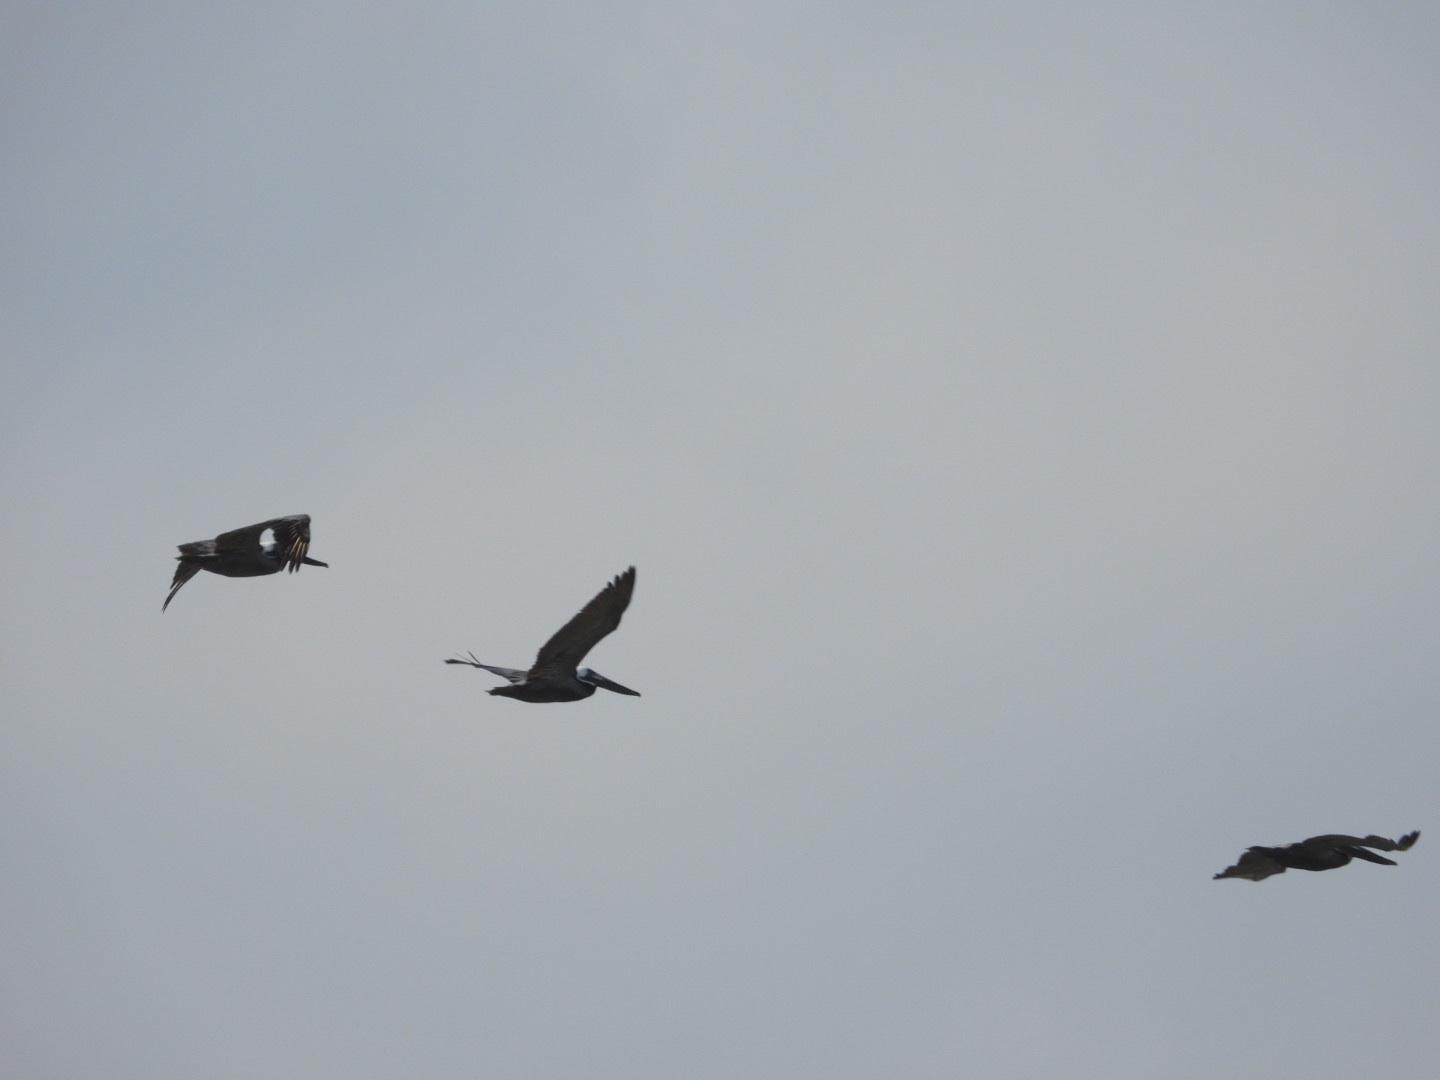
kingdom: Animalia
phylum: Chordata
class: Aves
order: Pelecaniformes
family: Pelecanidae
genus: Pelecanus
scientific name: Pelecanus occidentalis
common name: Brown pelican
